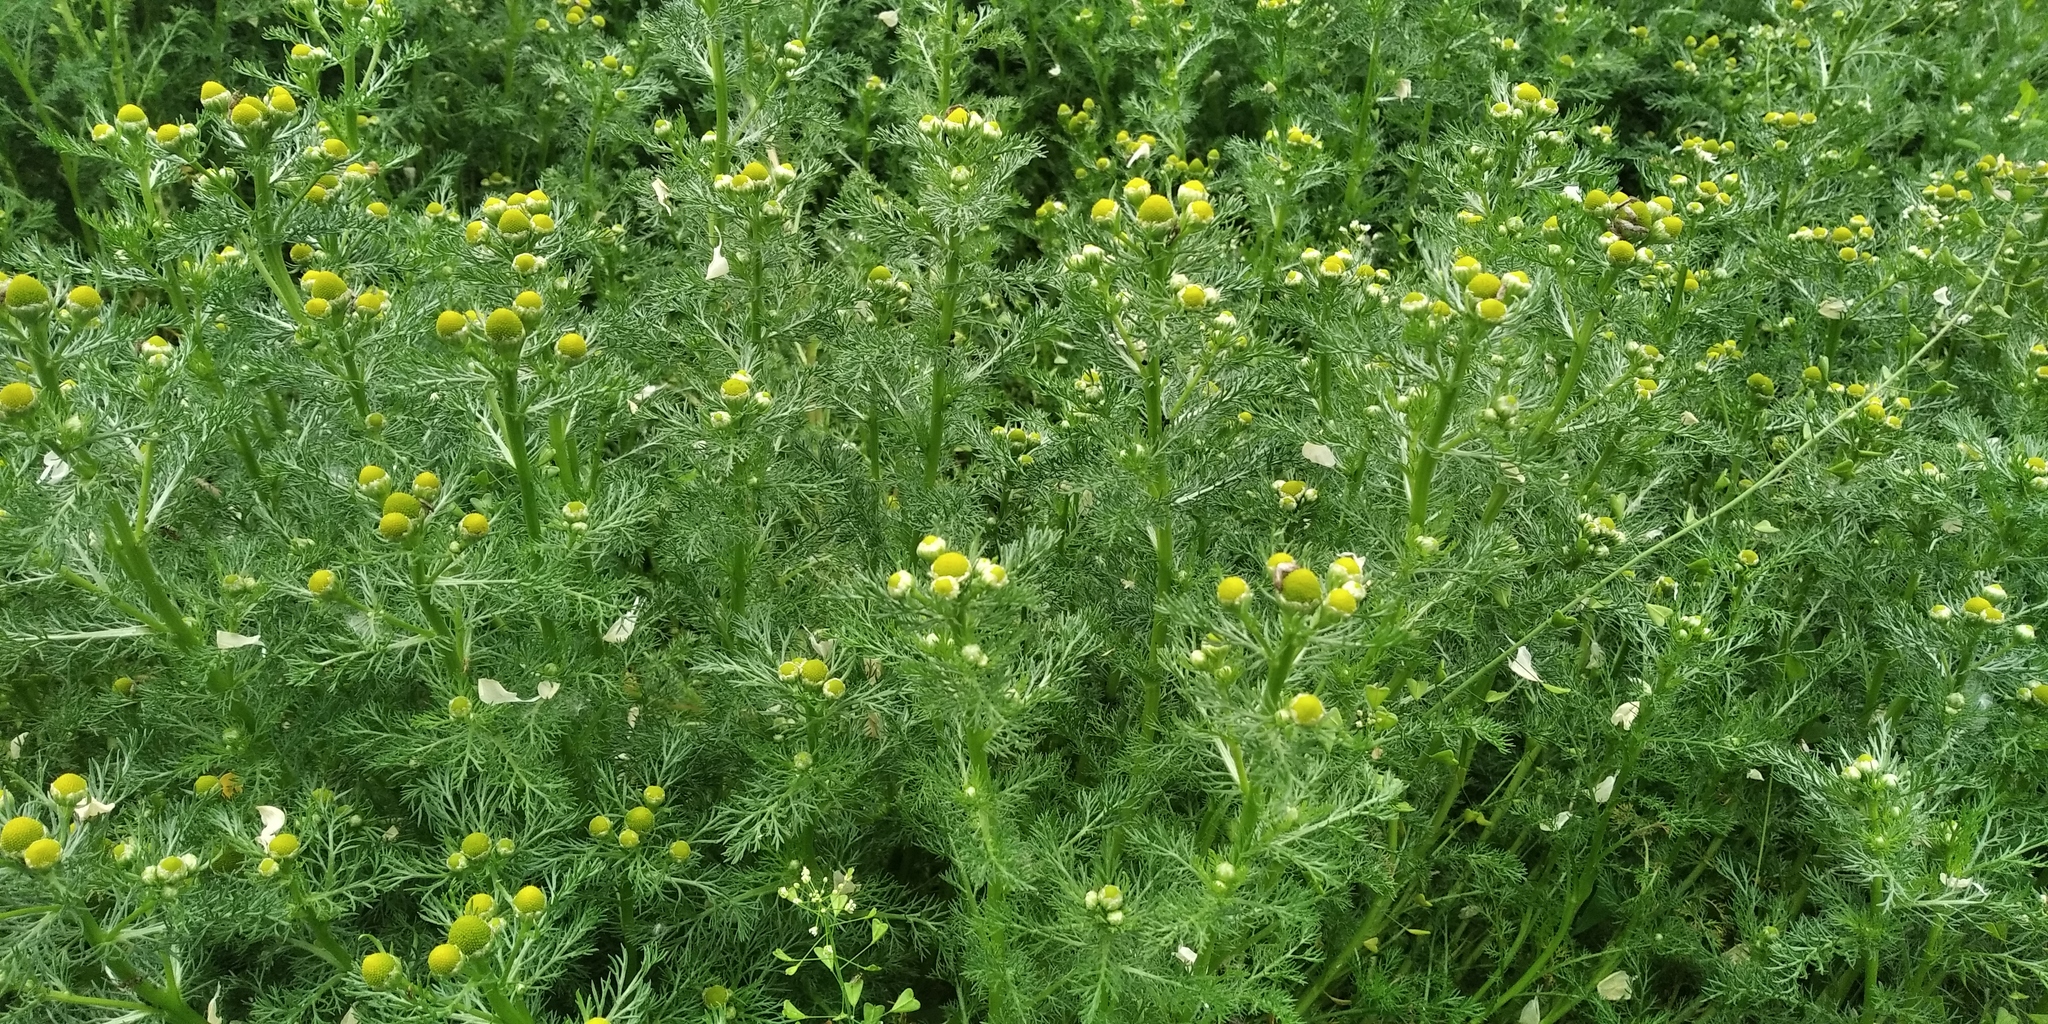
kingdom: Plantae
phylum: Tracheophyta
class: Magnoliopsida
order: Asterales
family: Asteraceae
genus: Matricaria
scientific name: Matricaria discoidea
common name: Disc mayweed
